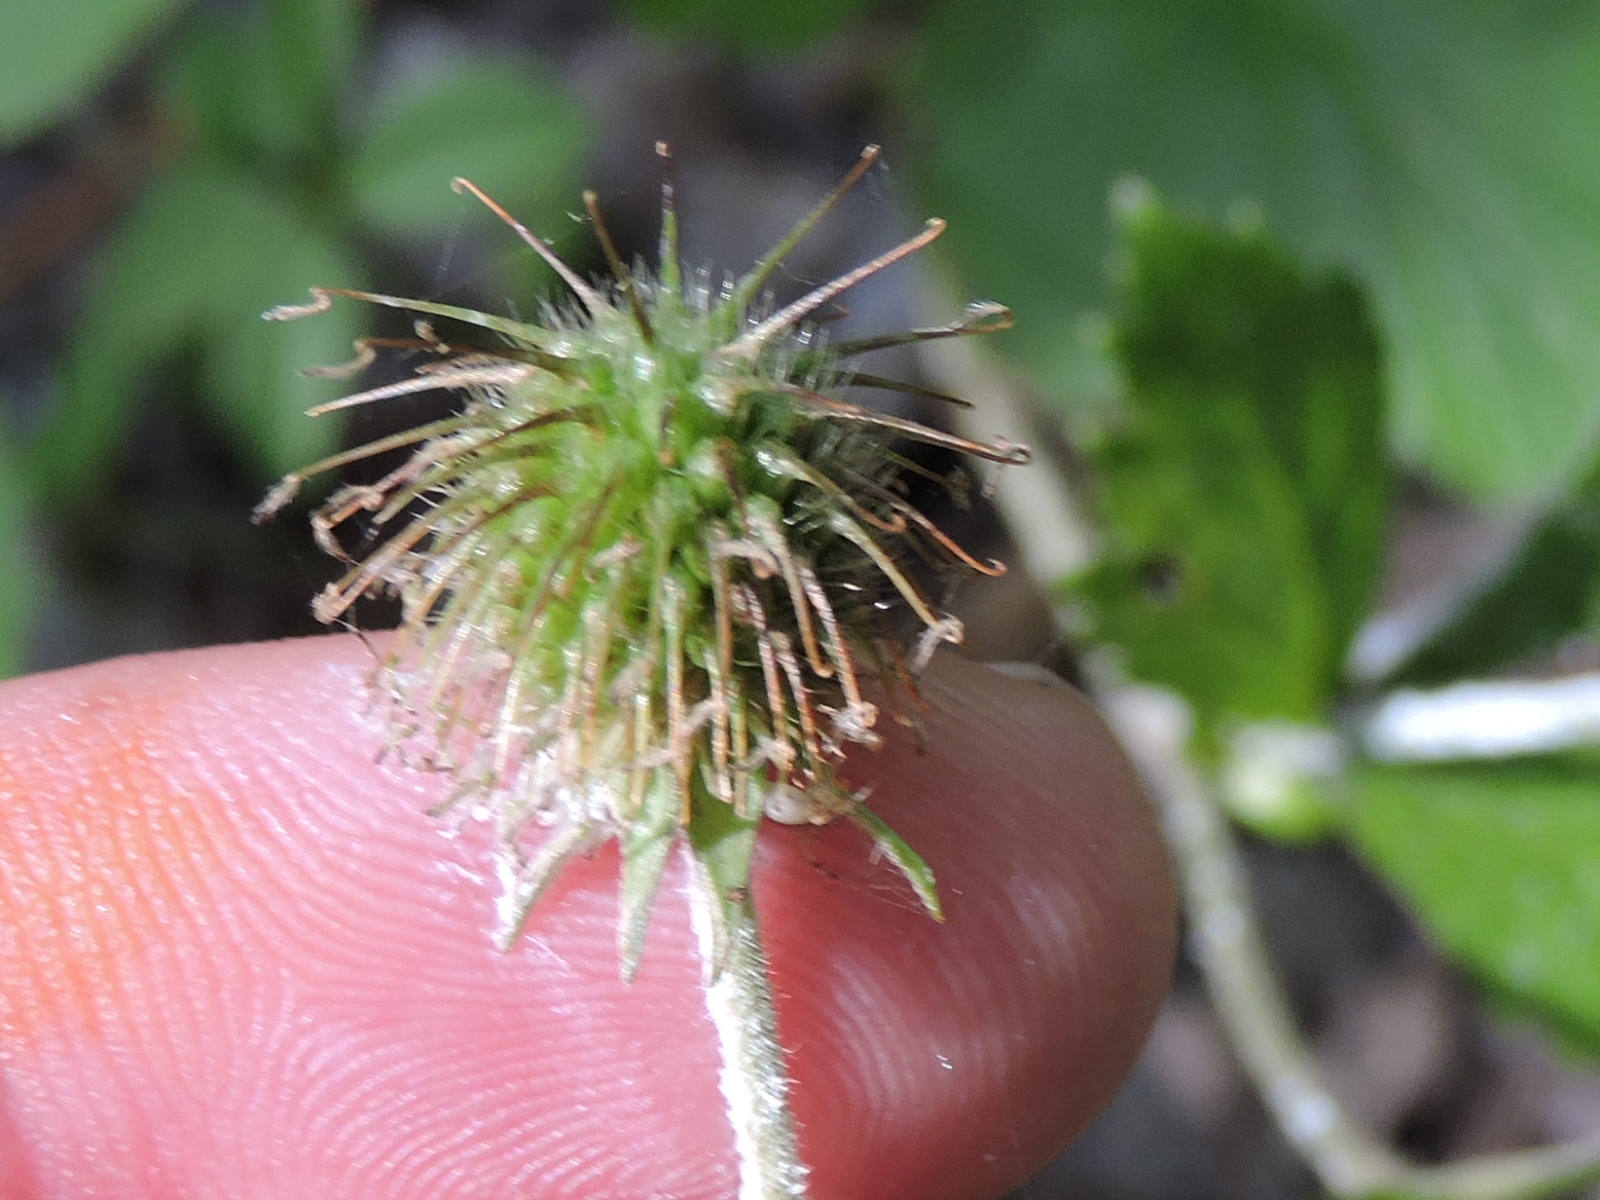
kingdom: Plantae
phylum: Tracheophyta
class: Magnoliopsida
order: Rosales
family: Rosaceae
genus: Geum
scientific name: Geum canadense
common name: White avens
